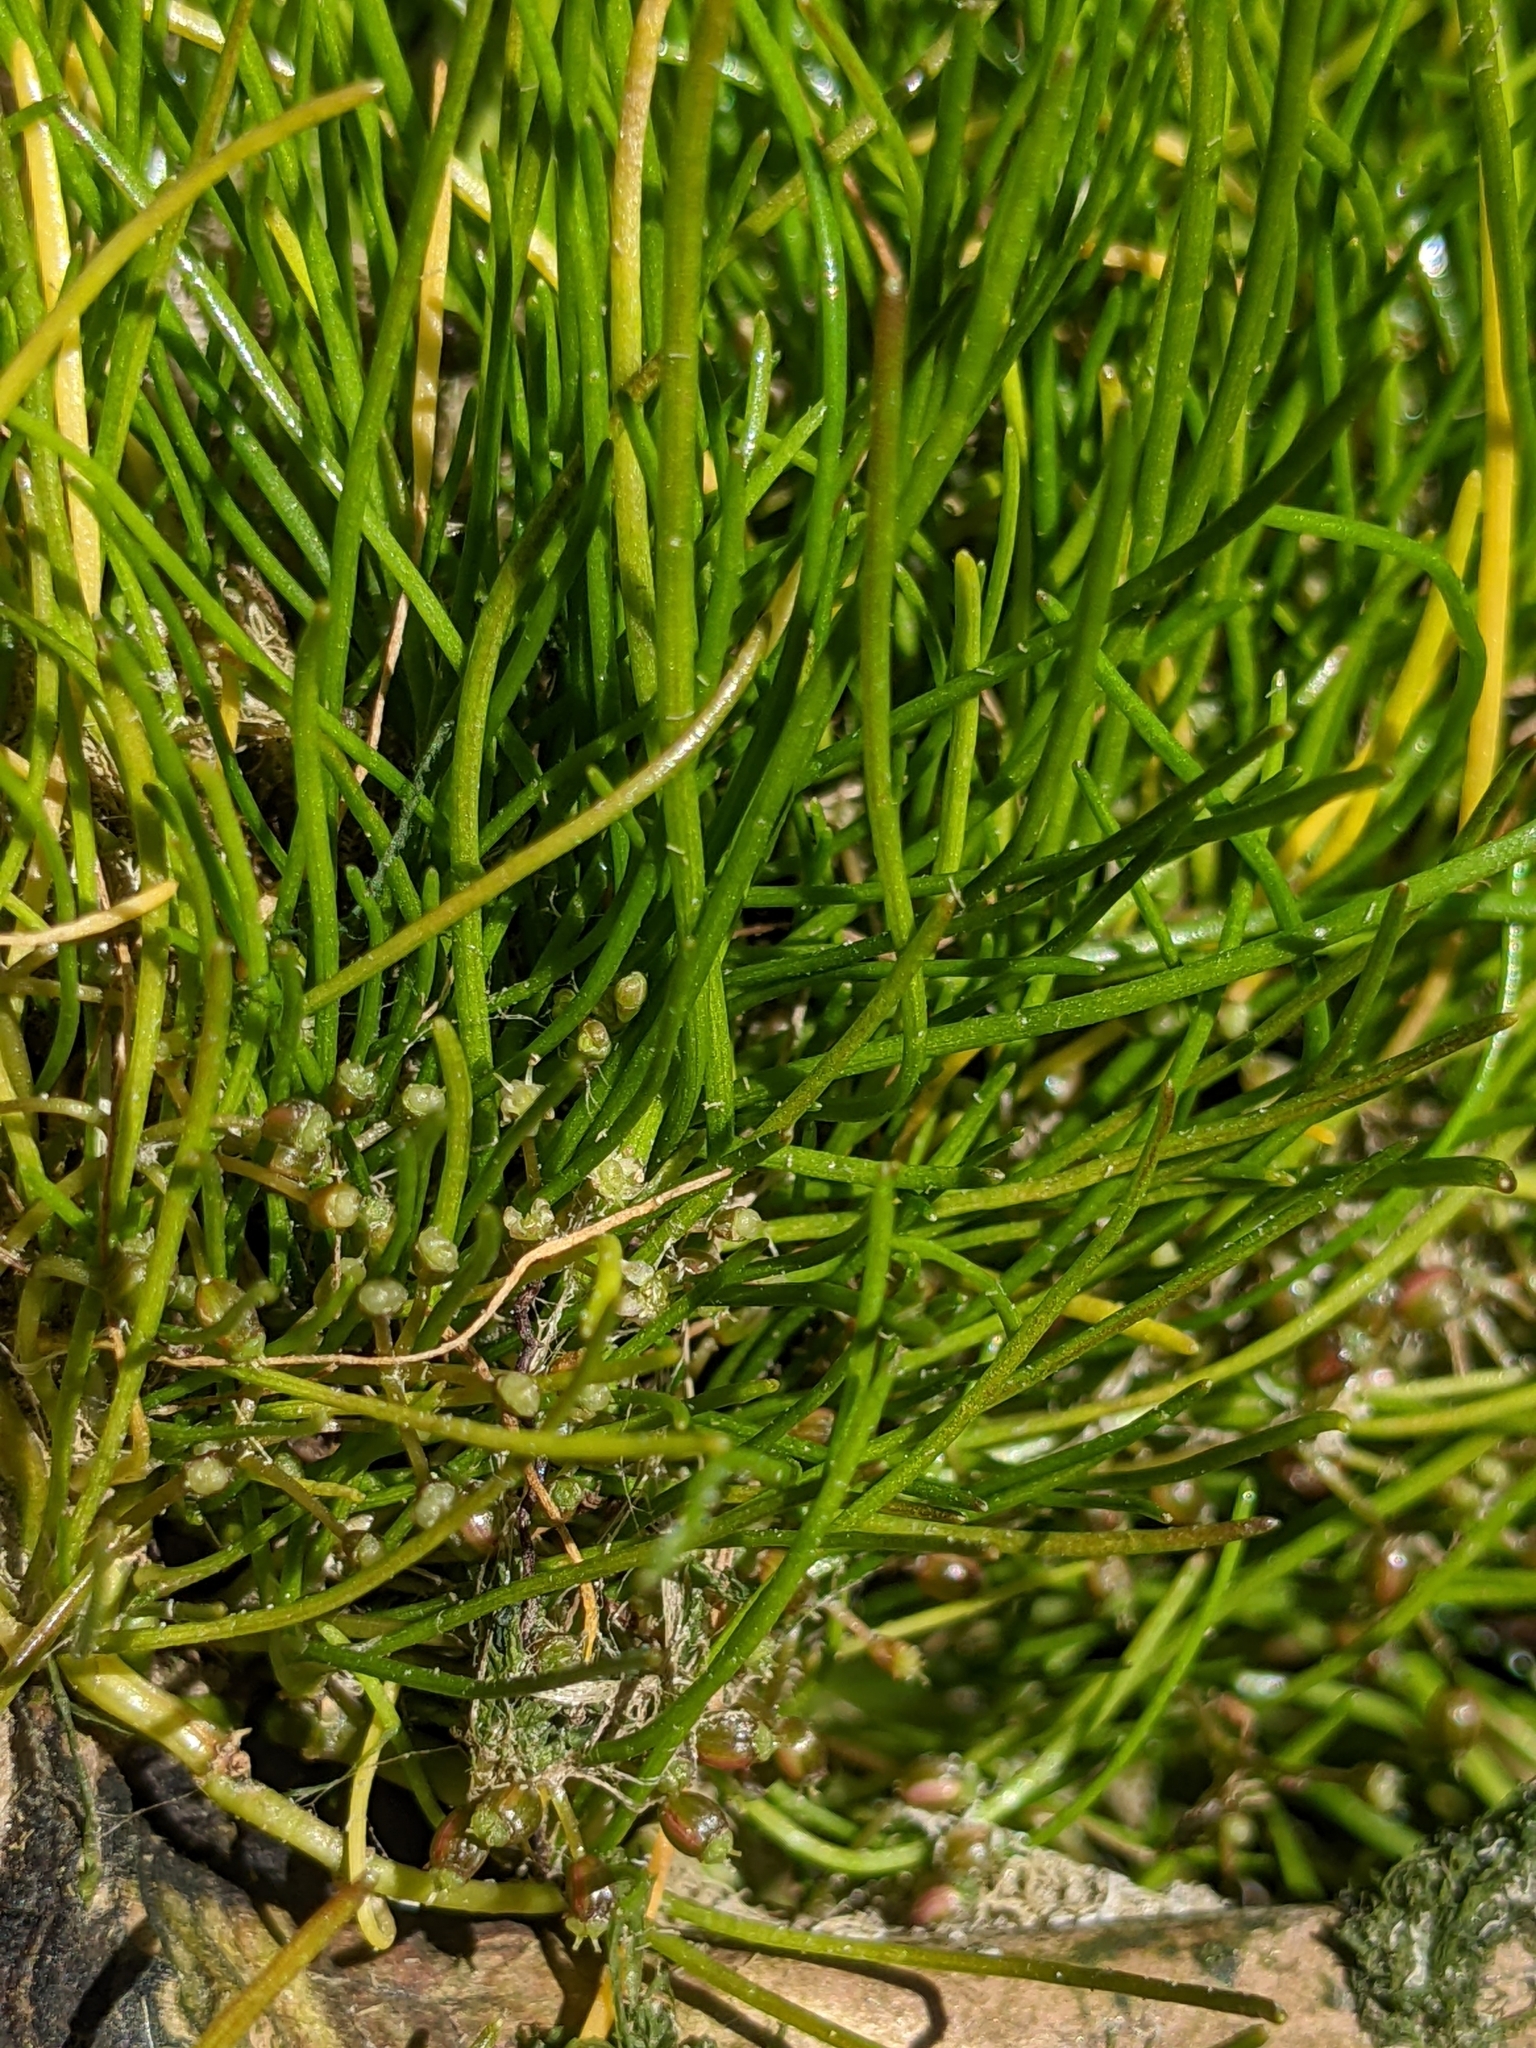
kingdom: Plantae
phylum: Tracheophyta
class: Magnoliopsida
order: Apiales
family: Apiaceae
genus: Lilaeopsis
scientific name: Lilaeopsis occidentalis
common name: Western grasswort
